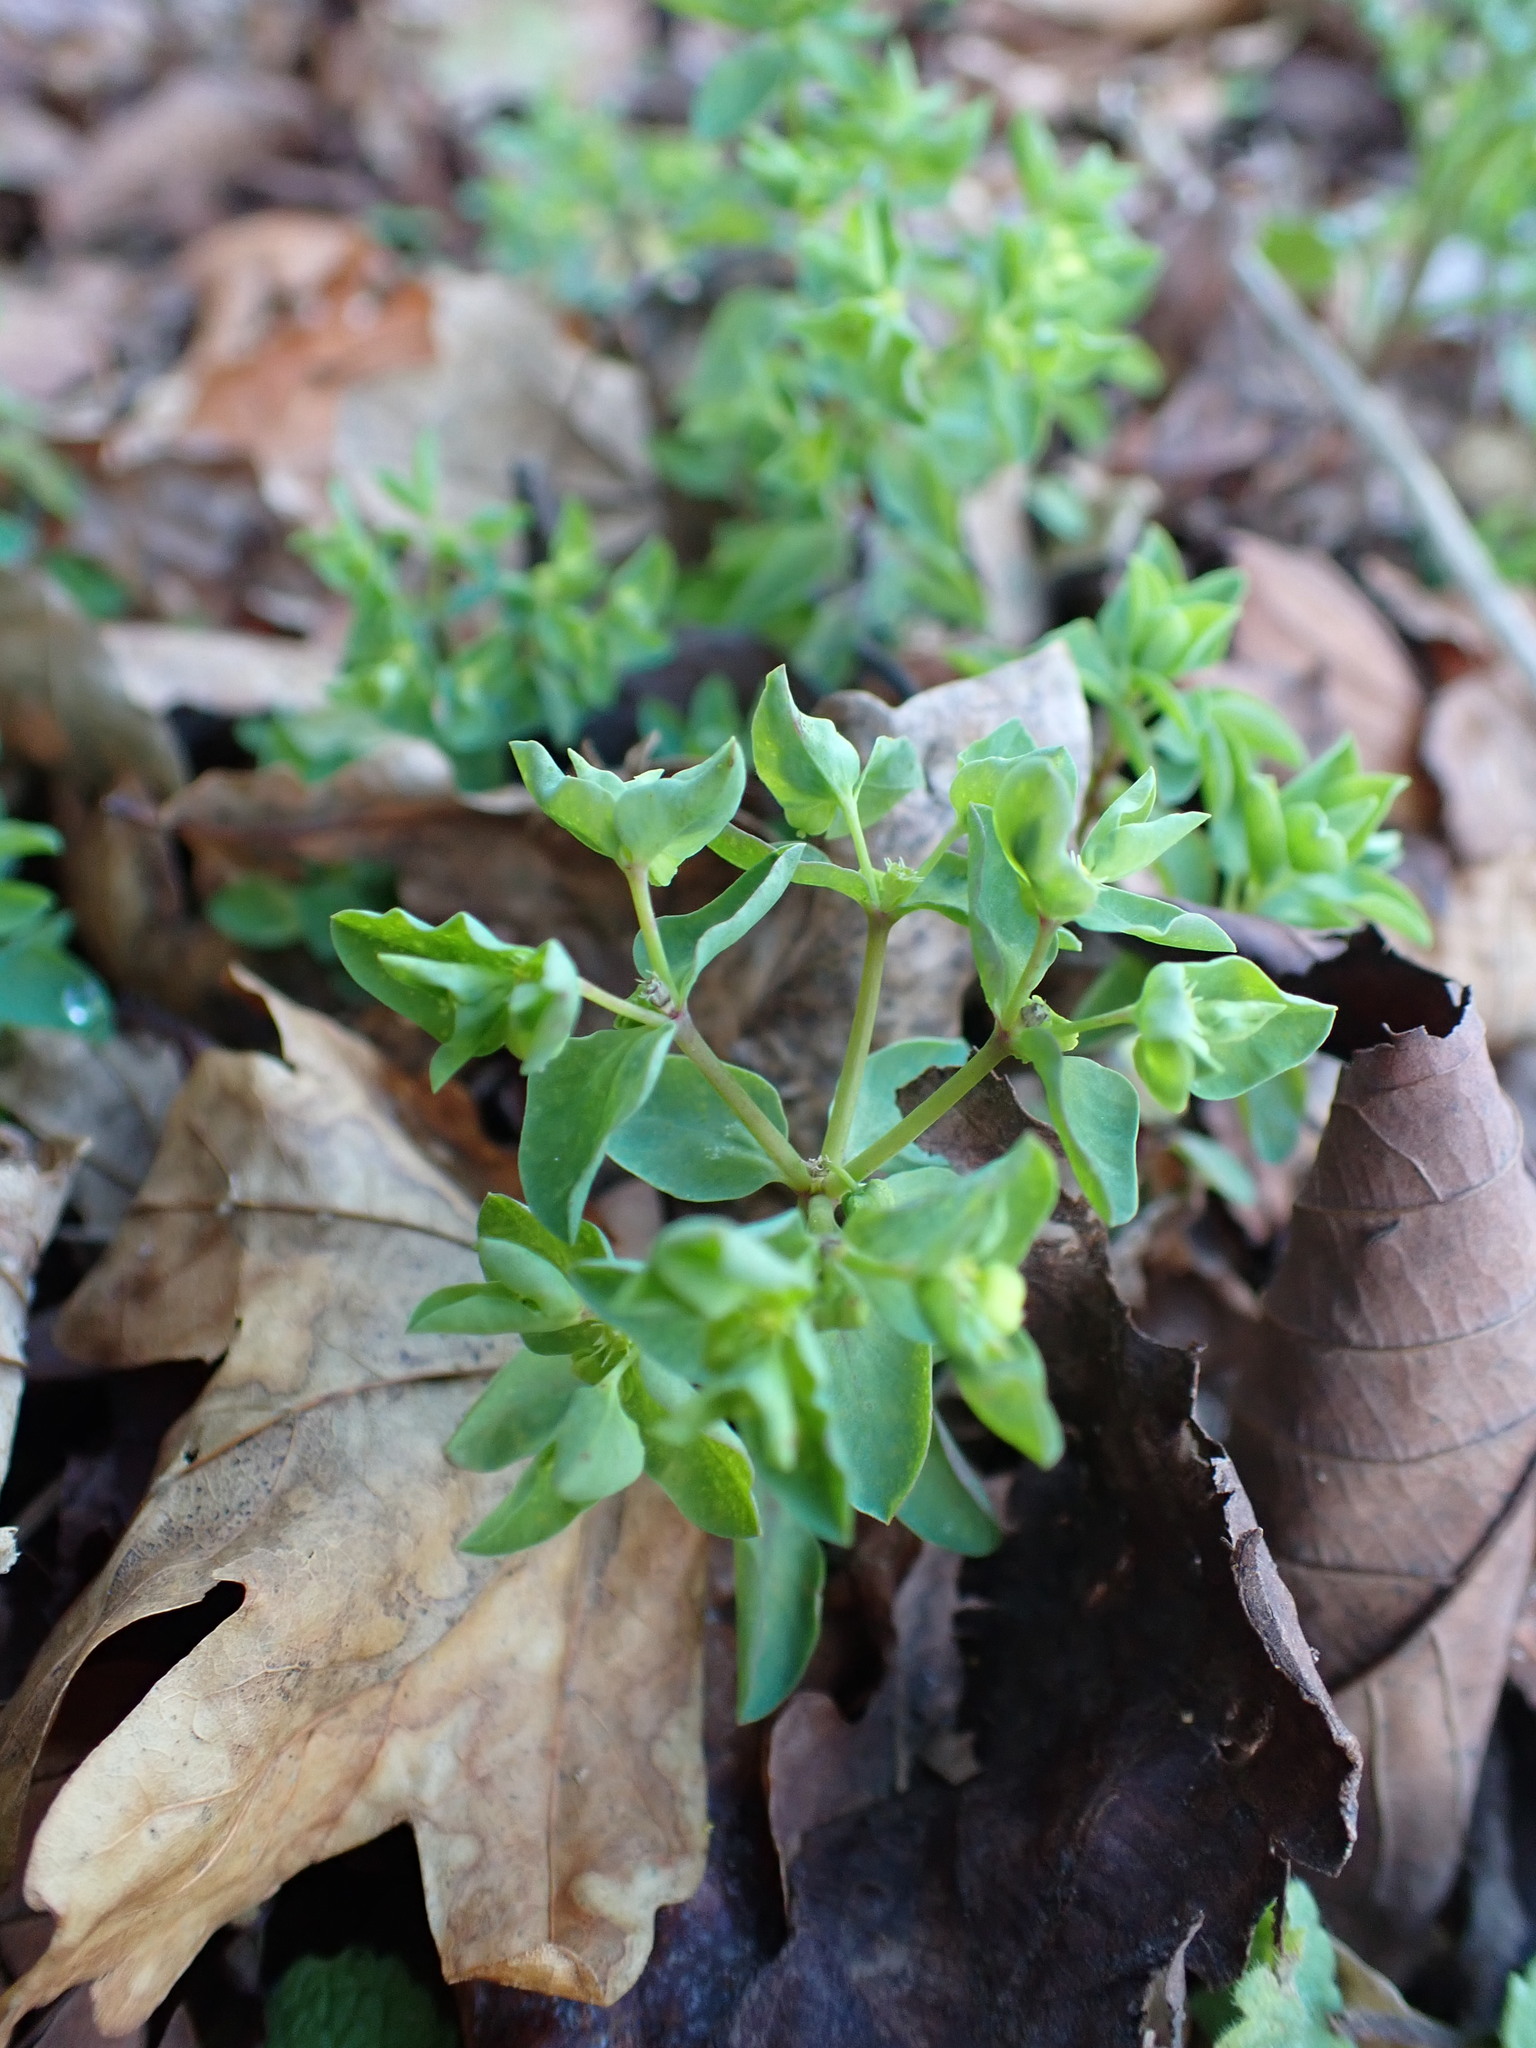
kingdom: Plantae
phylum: Tracheophyta
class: Magnoliopsida
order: Malpighiales
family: Euphorbiaceae
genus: Euphorbia
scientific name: Euphorbia peplus
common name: Petty spurge
